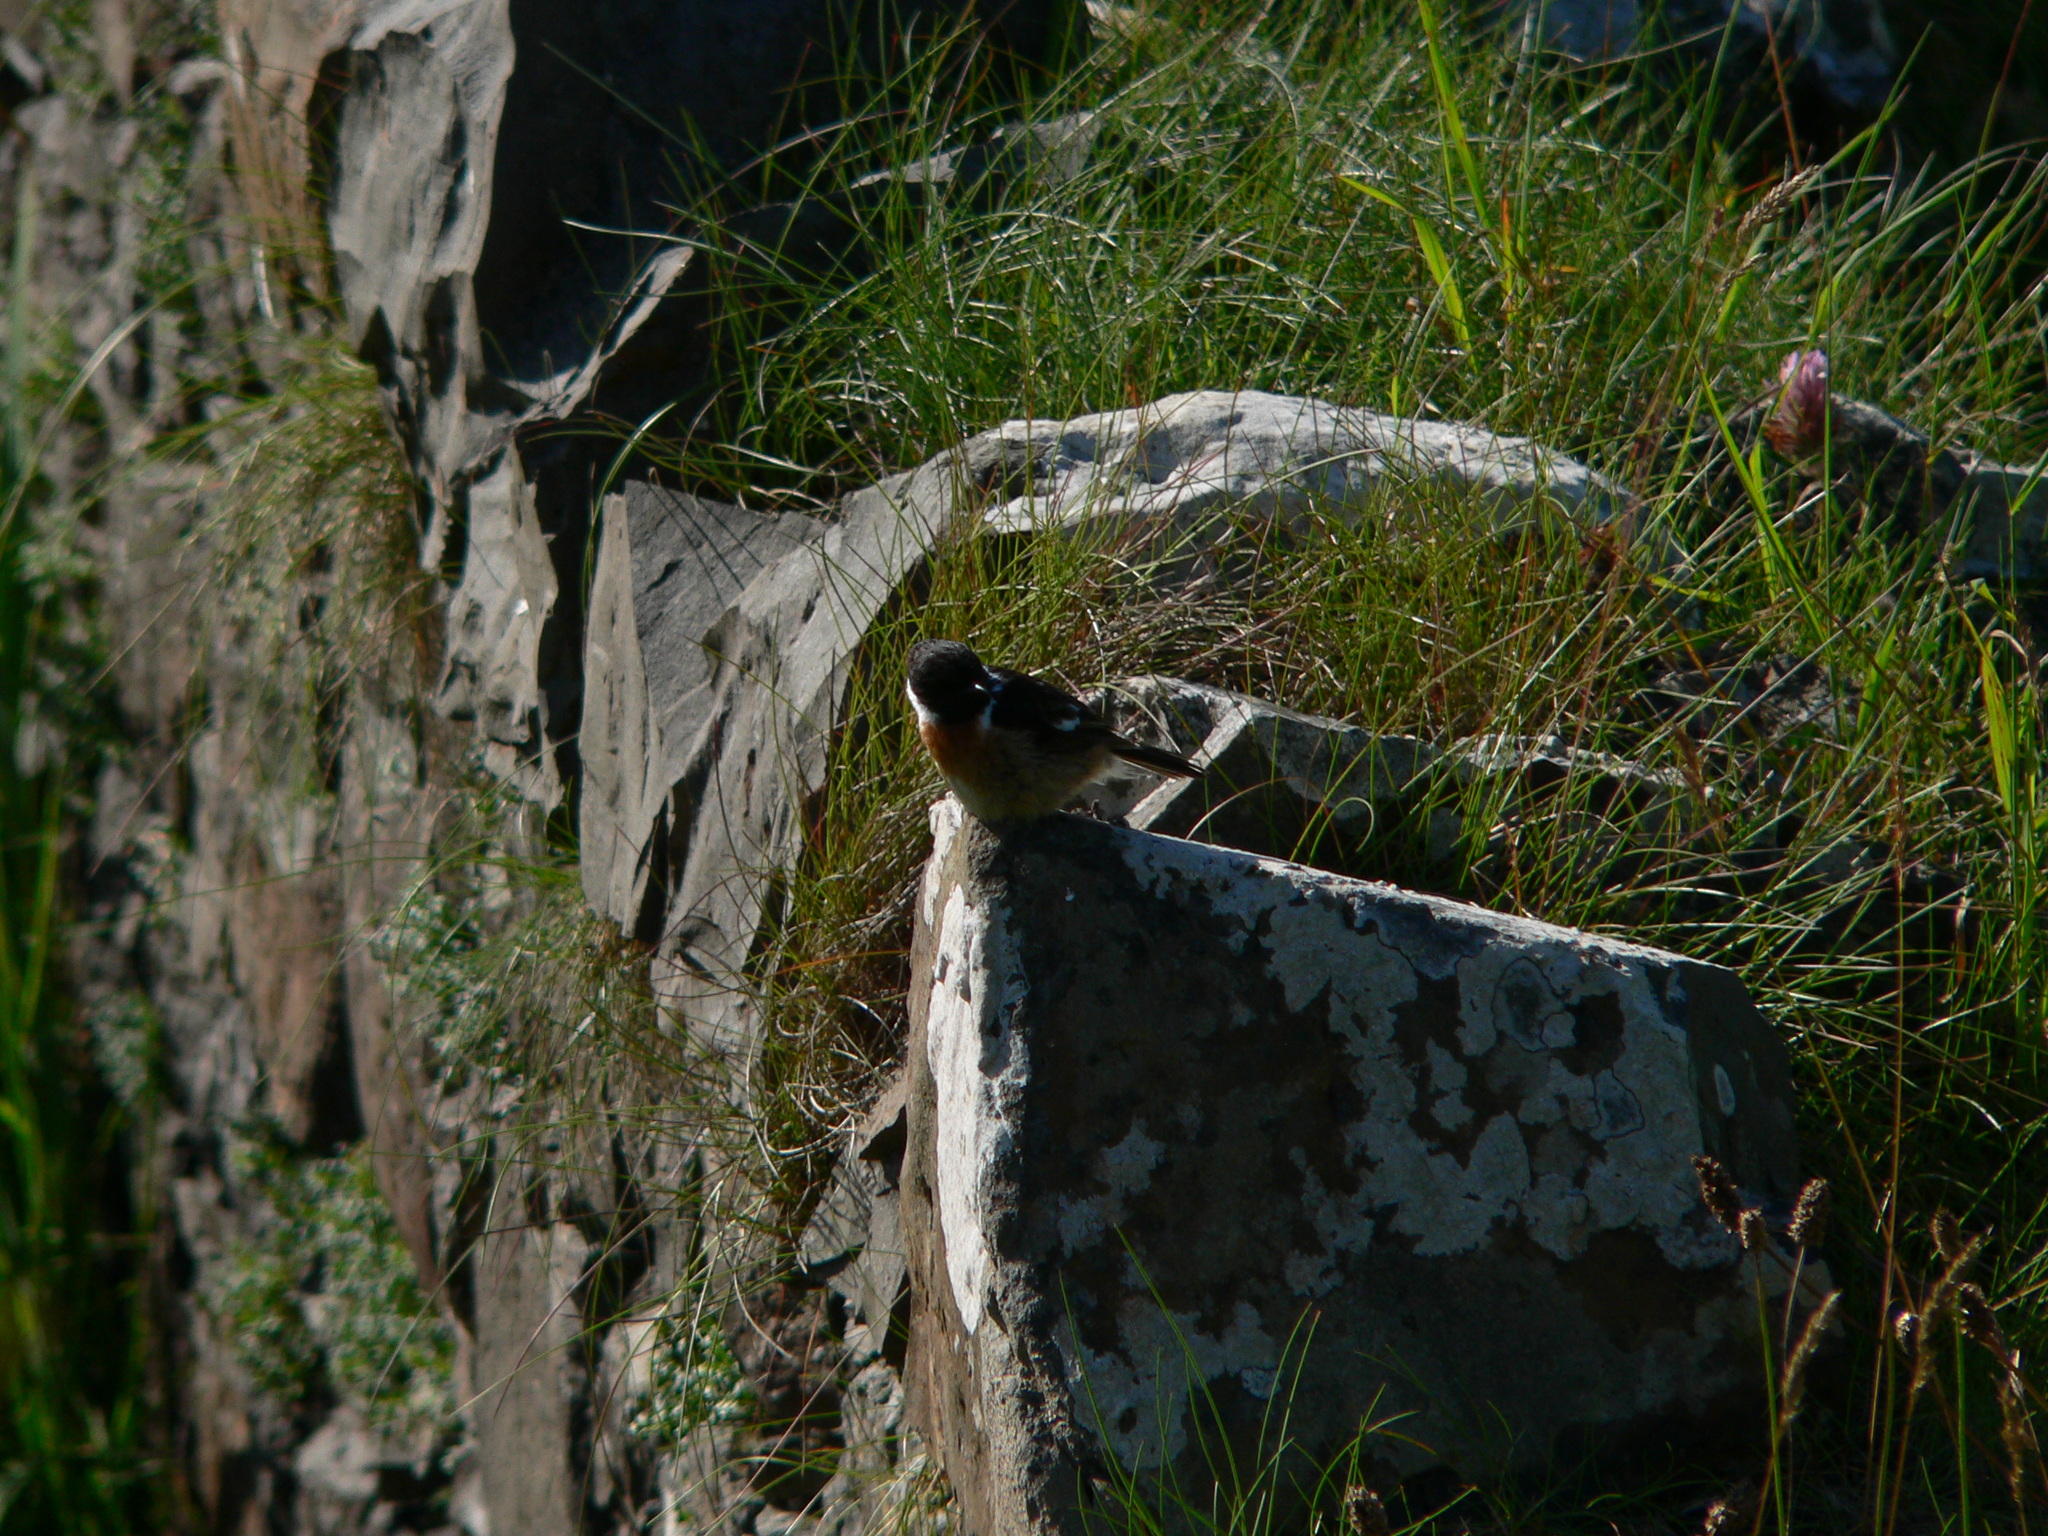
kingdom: Animalia
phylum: Chordata
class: Aves
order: Passeriformes
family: Muscicapidae
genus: Saxicola
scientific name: Saxicola rubicola
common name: European stonechat
